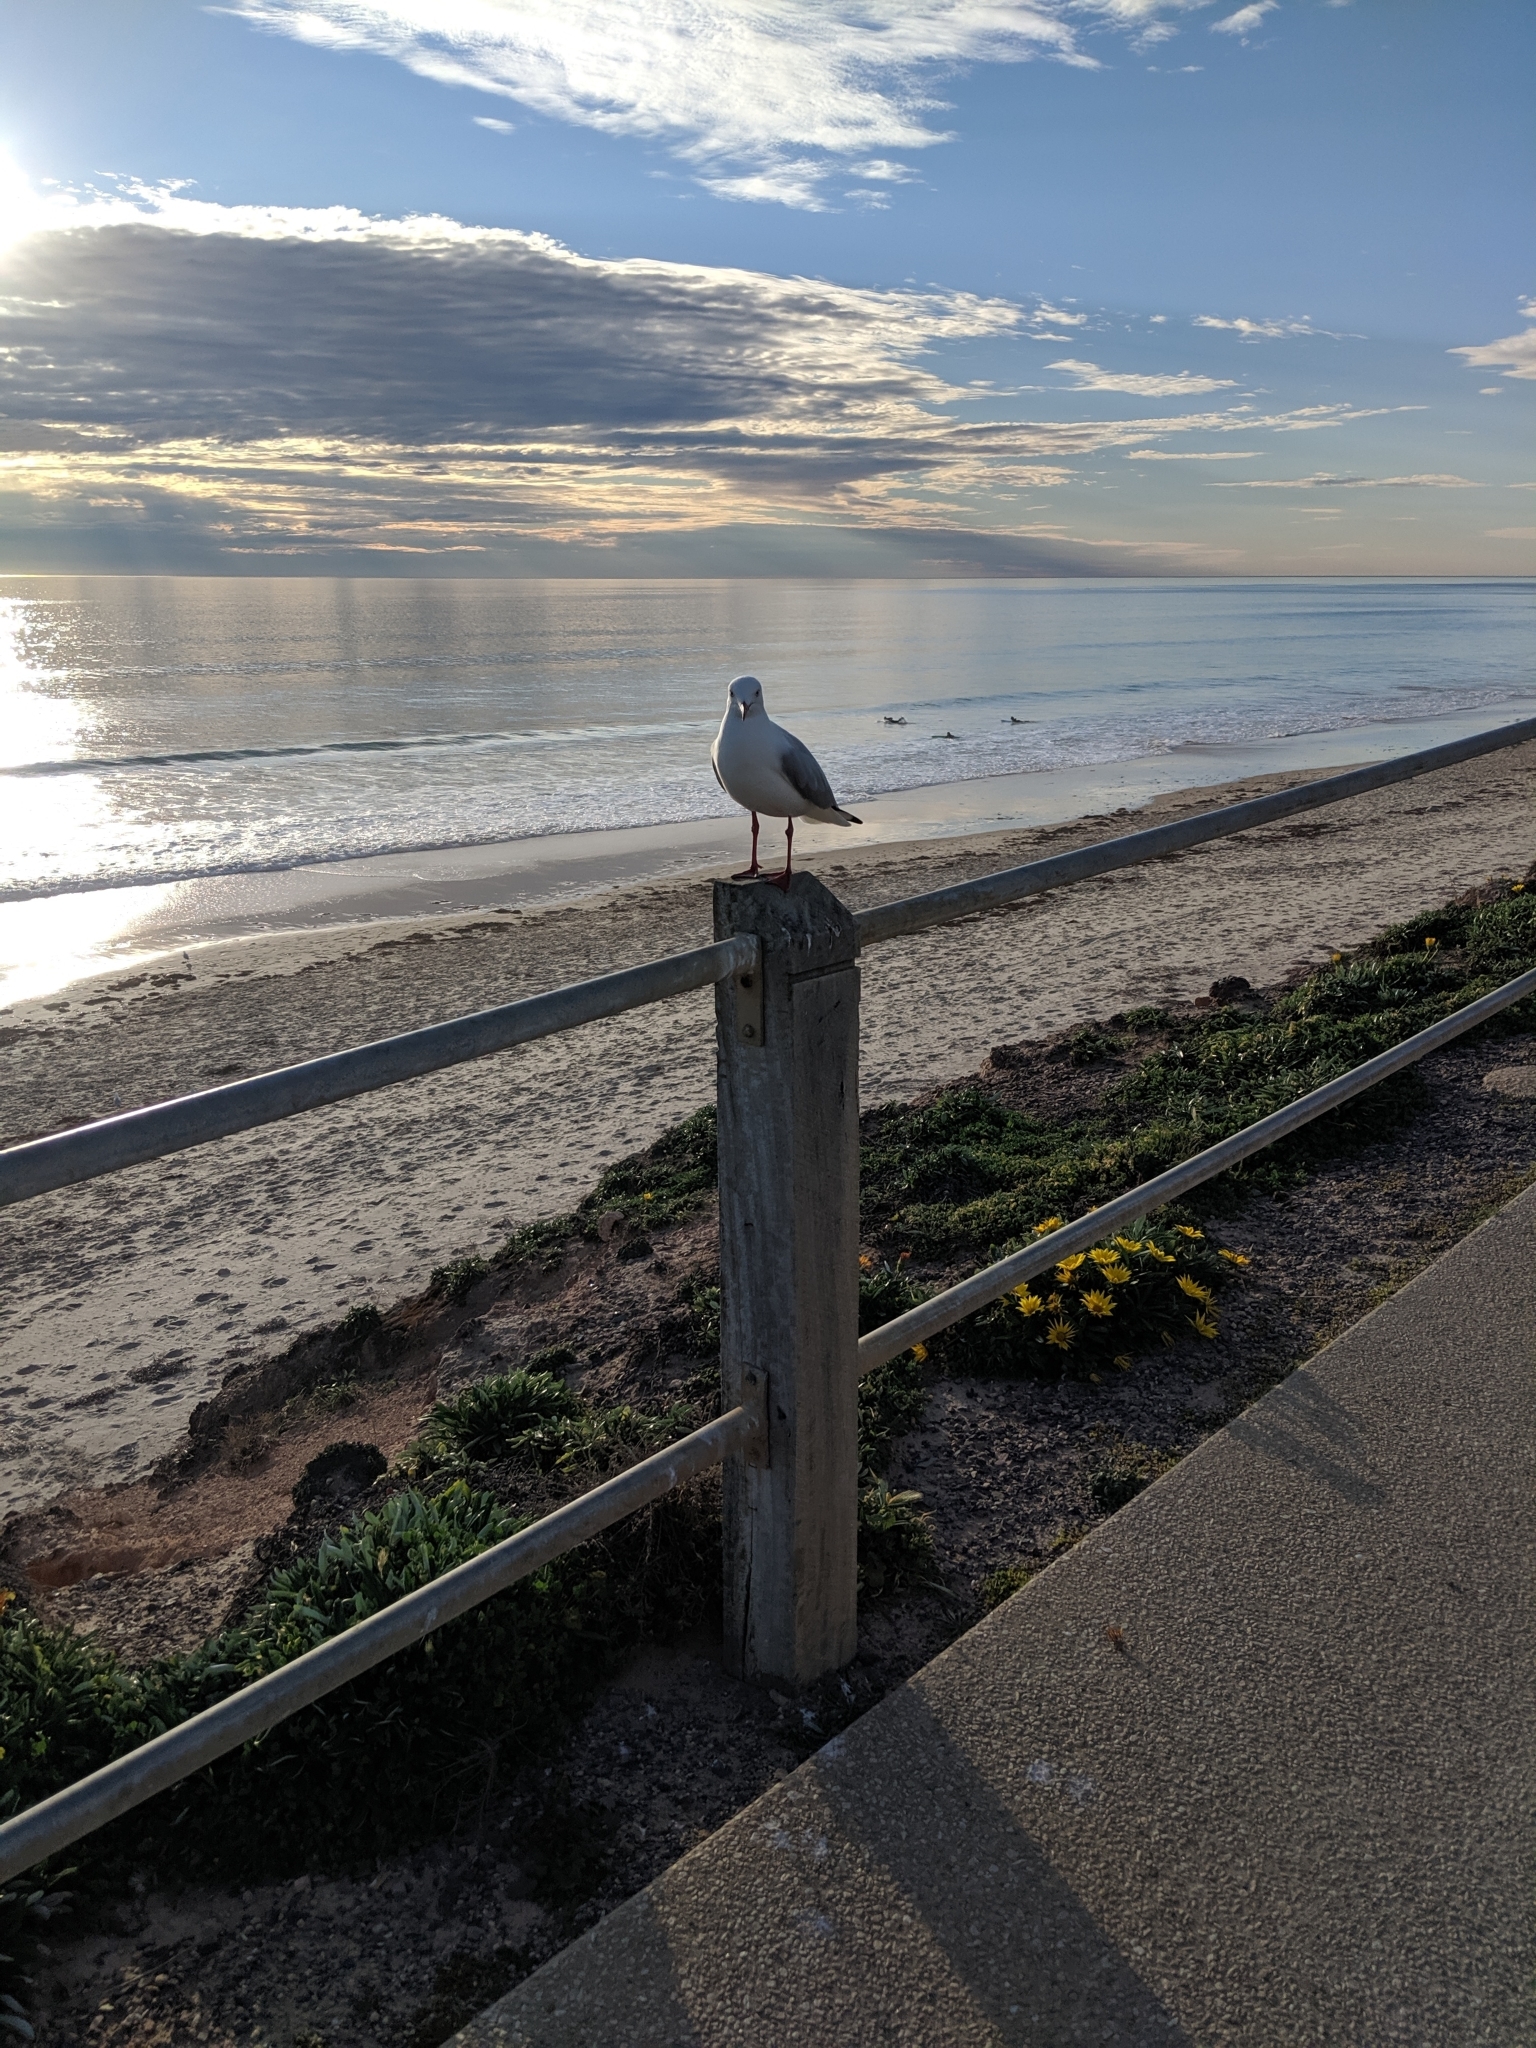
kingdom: Animalia
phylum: Chordata
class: Aves
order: Charadriiformes
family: Laridae
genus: Chroicocephalus
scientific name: Chroicocephalus novaehollandiae
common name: Silver gull
